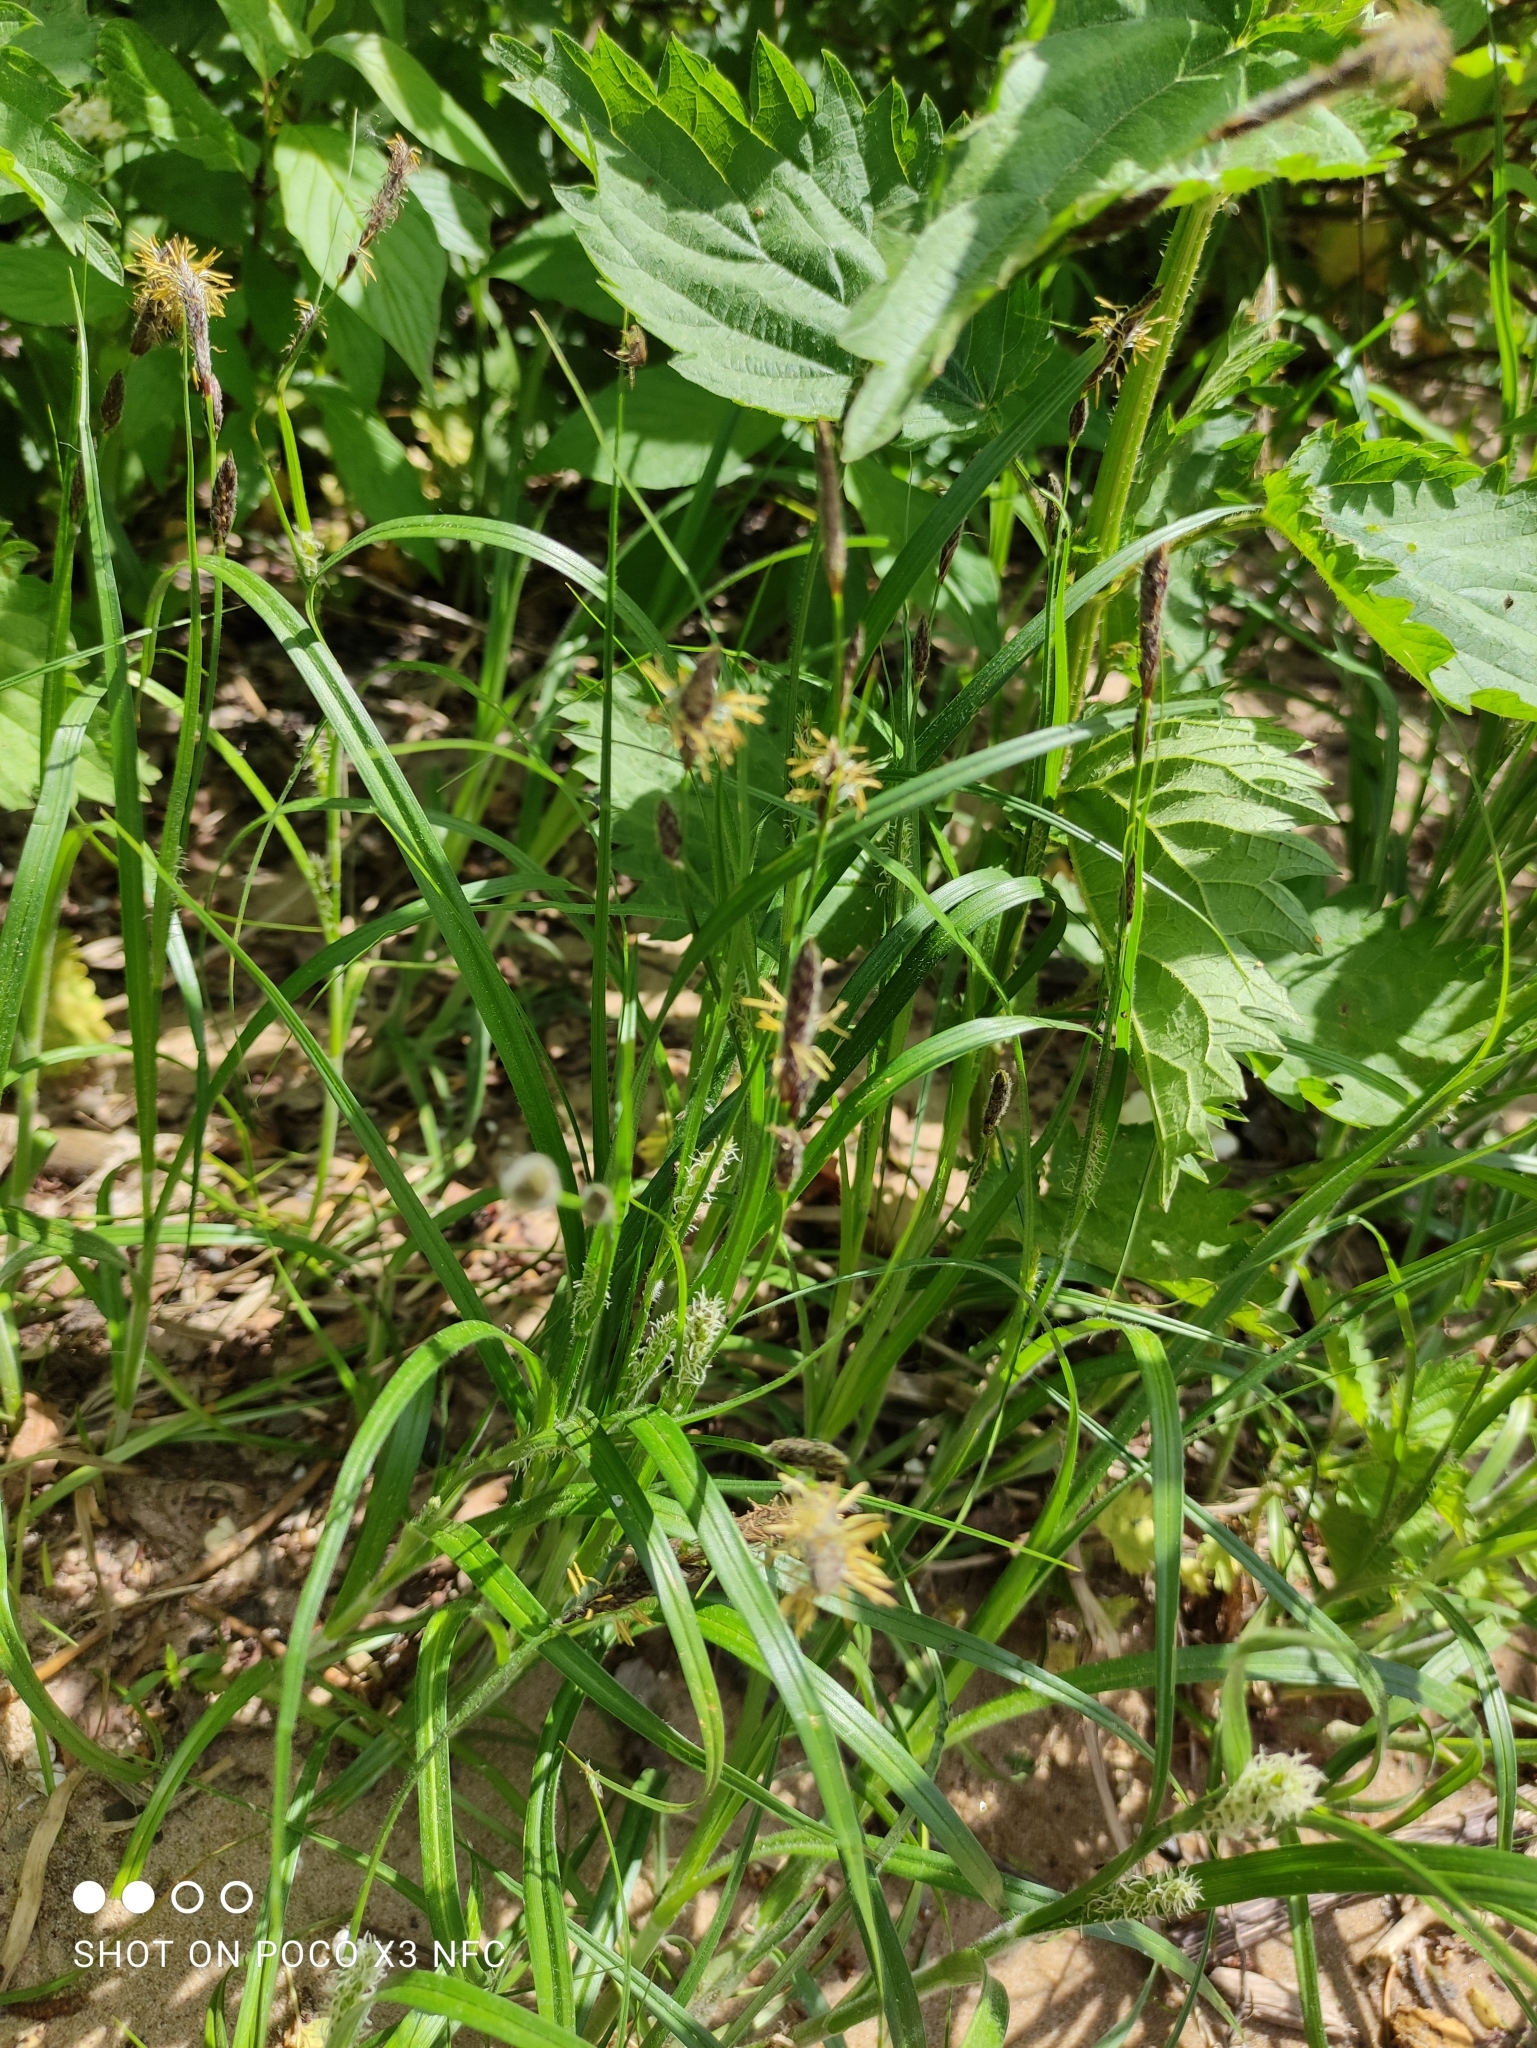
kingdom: Plantae
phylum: Tracheophyta
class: Liliopsida
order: Poales
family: Cyperaceae
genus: Carex
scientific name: Carex hirta
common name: Hairy sedge
